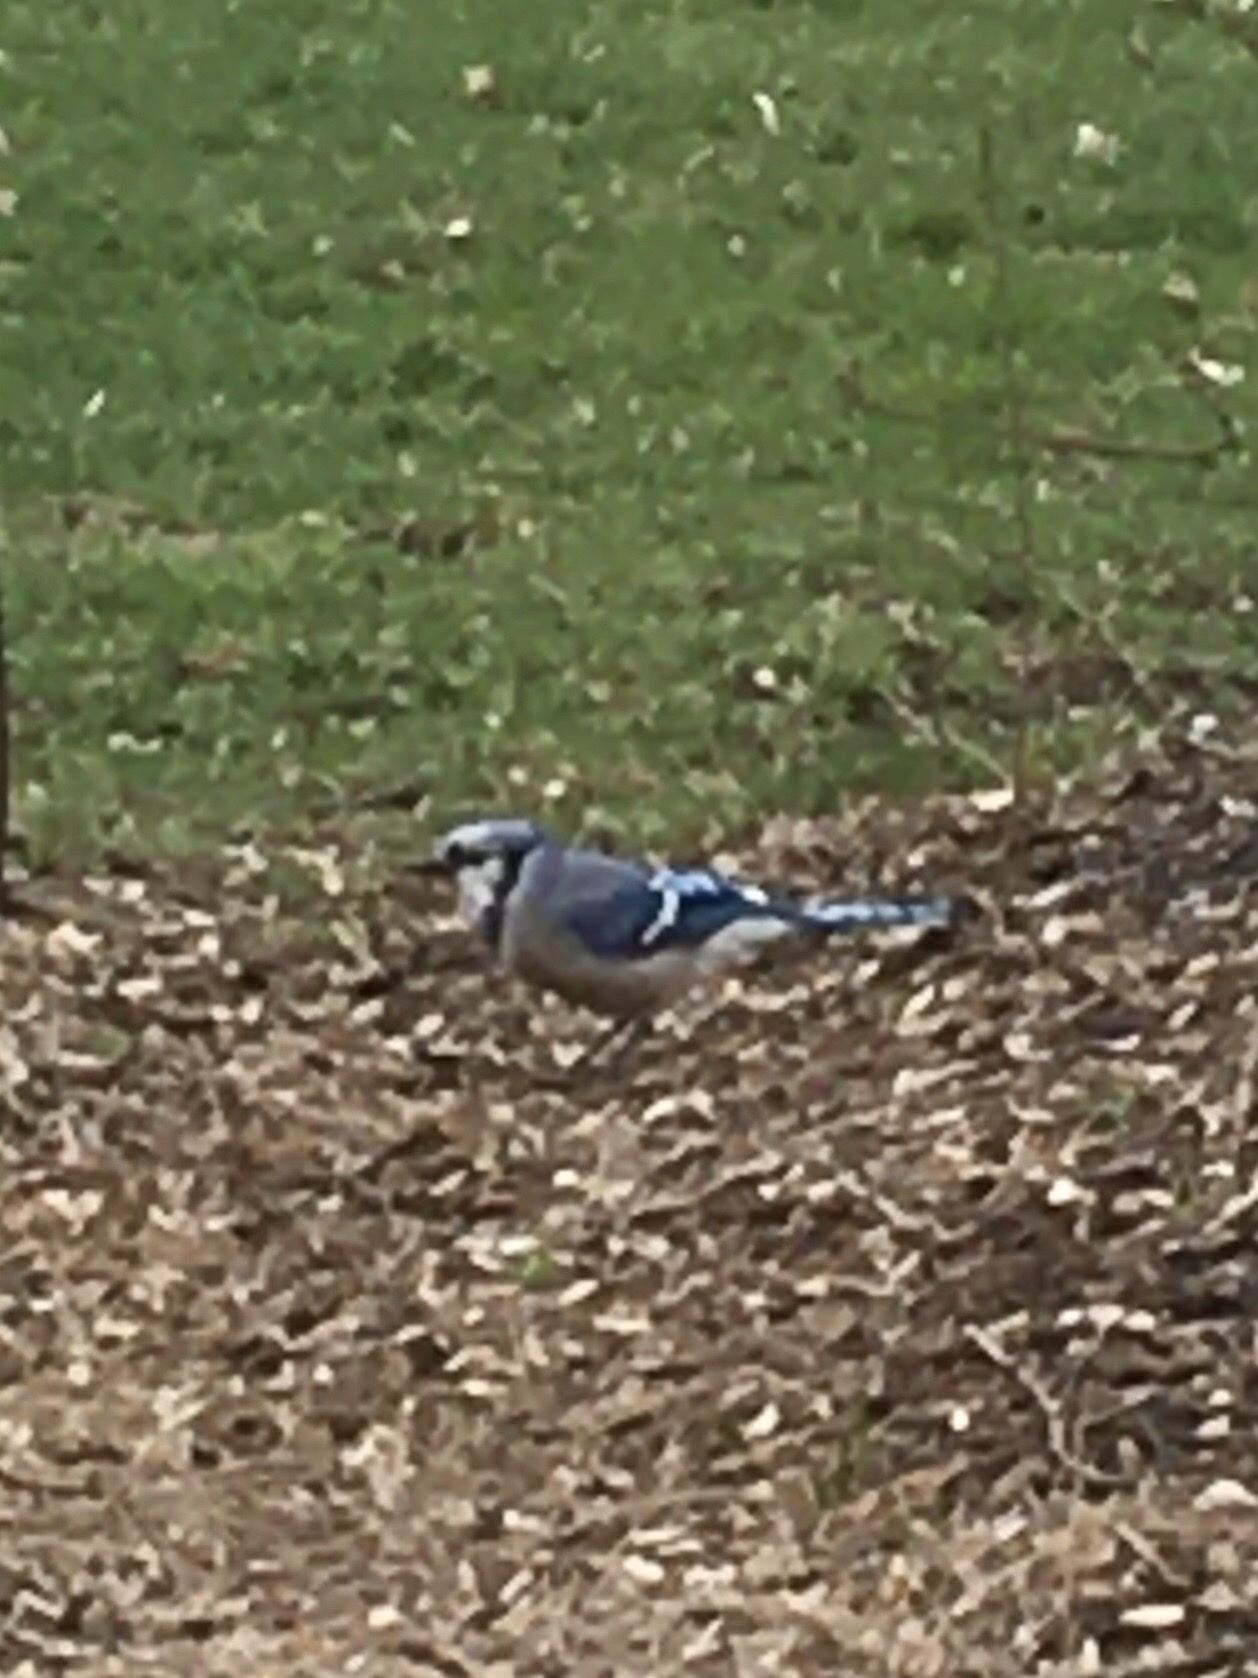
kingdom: Animalia
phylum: Chordata
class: Aves
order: Passeriformes
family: Corvidae
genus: Cyanocitta
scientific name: Cyanocitta cristata
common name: Blue jay
